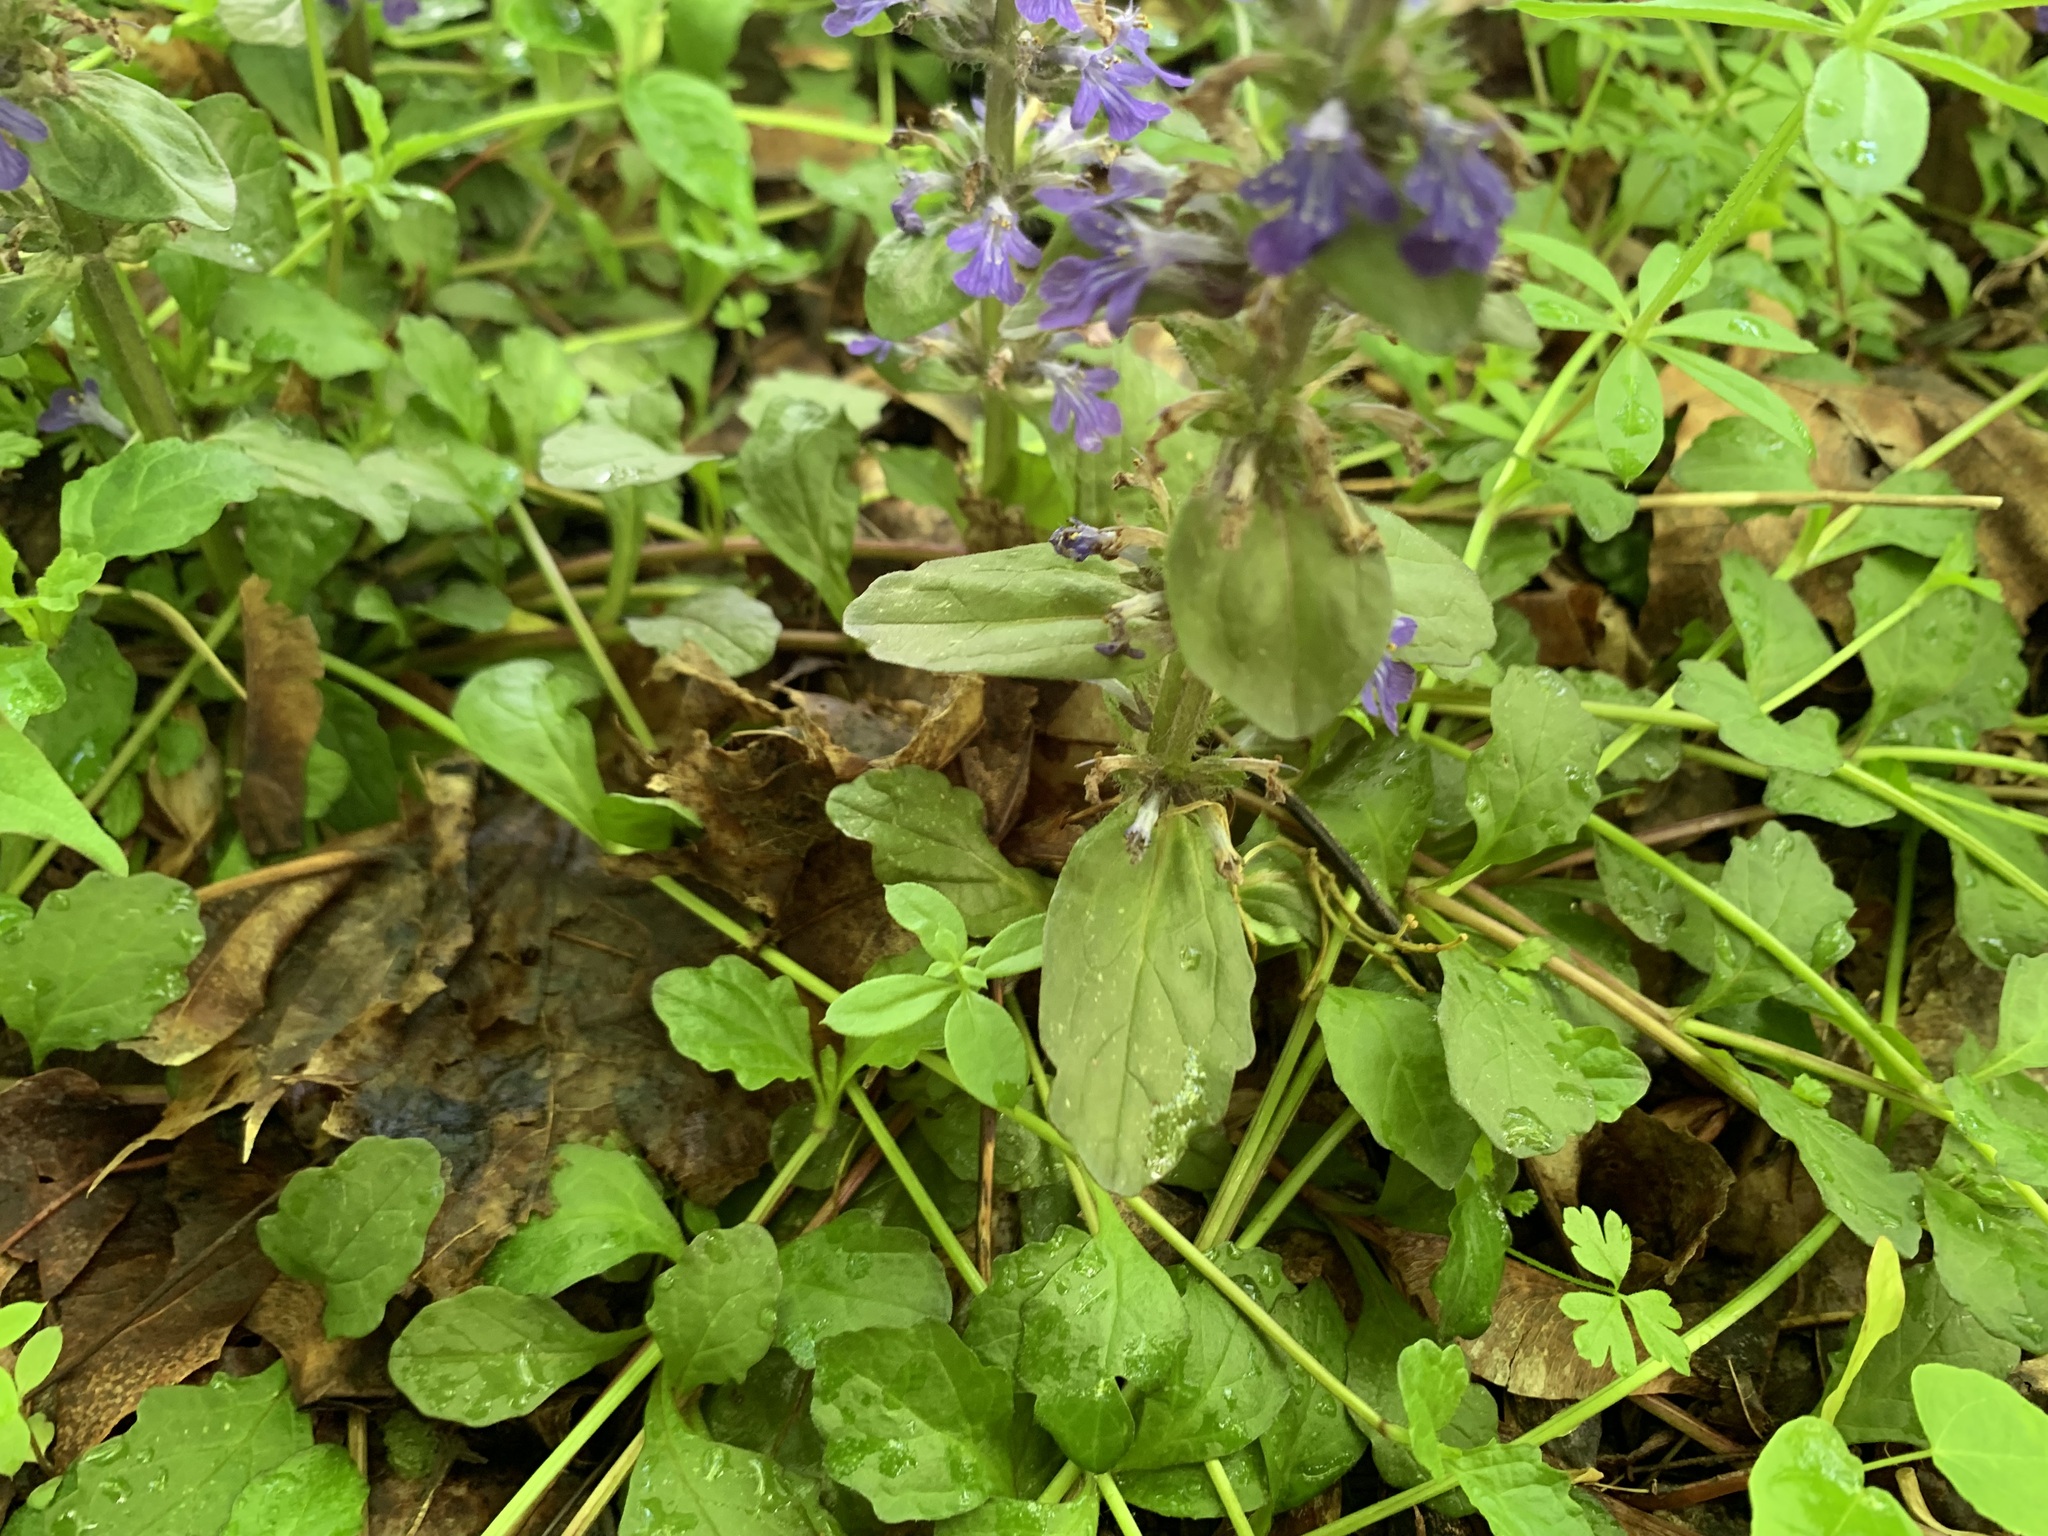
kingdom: Plantae
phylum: Tracheophyta
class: Magnoliopsida
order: Lamiales
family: Lamiaceae
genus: Ajuga
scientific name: Ajuga reptans
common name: Bugle
